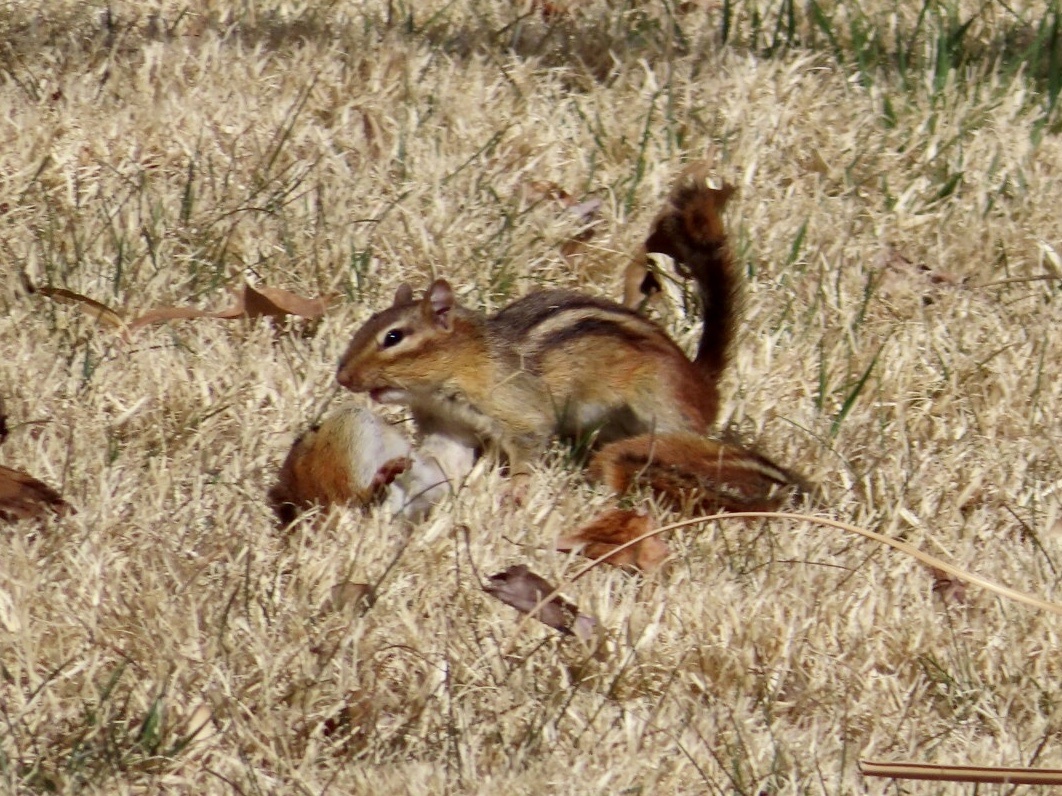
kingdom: Animalia
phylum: Chordata
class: Mammalia
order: Rodentia
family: Sciuridae
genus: Tamias
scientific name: Tamias striatus
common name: Eastern chipmunk
